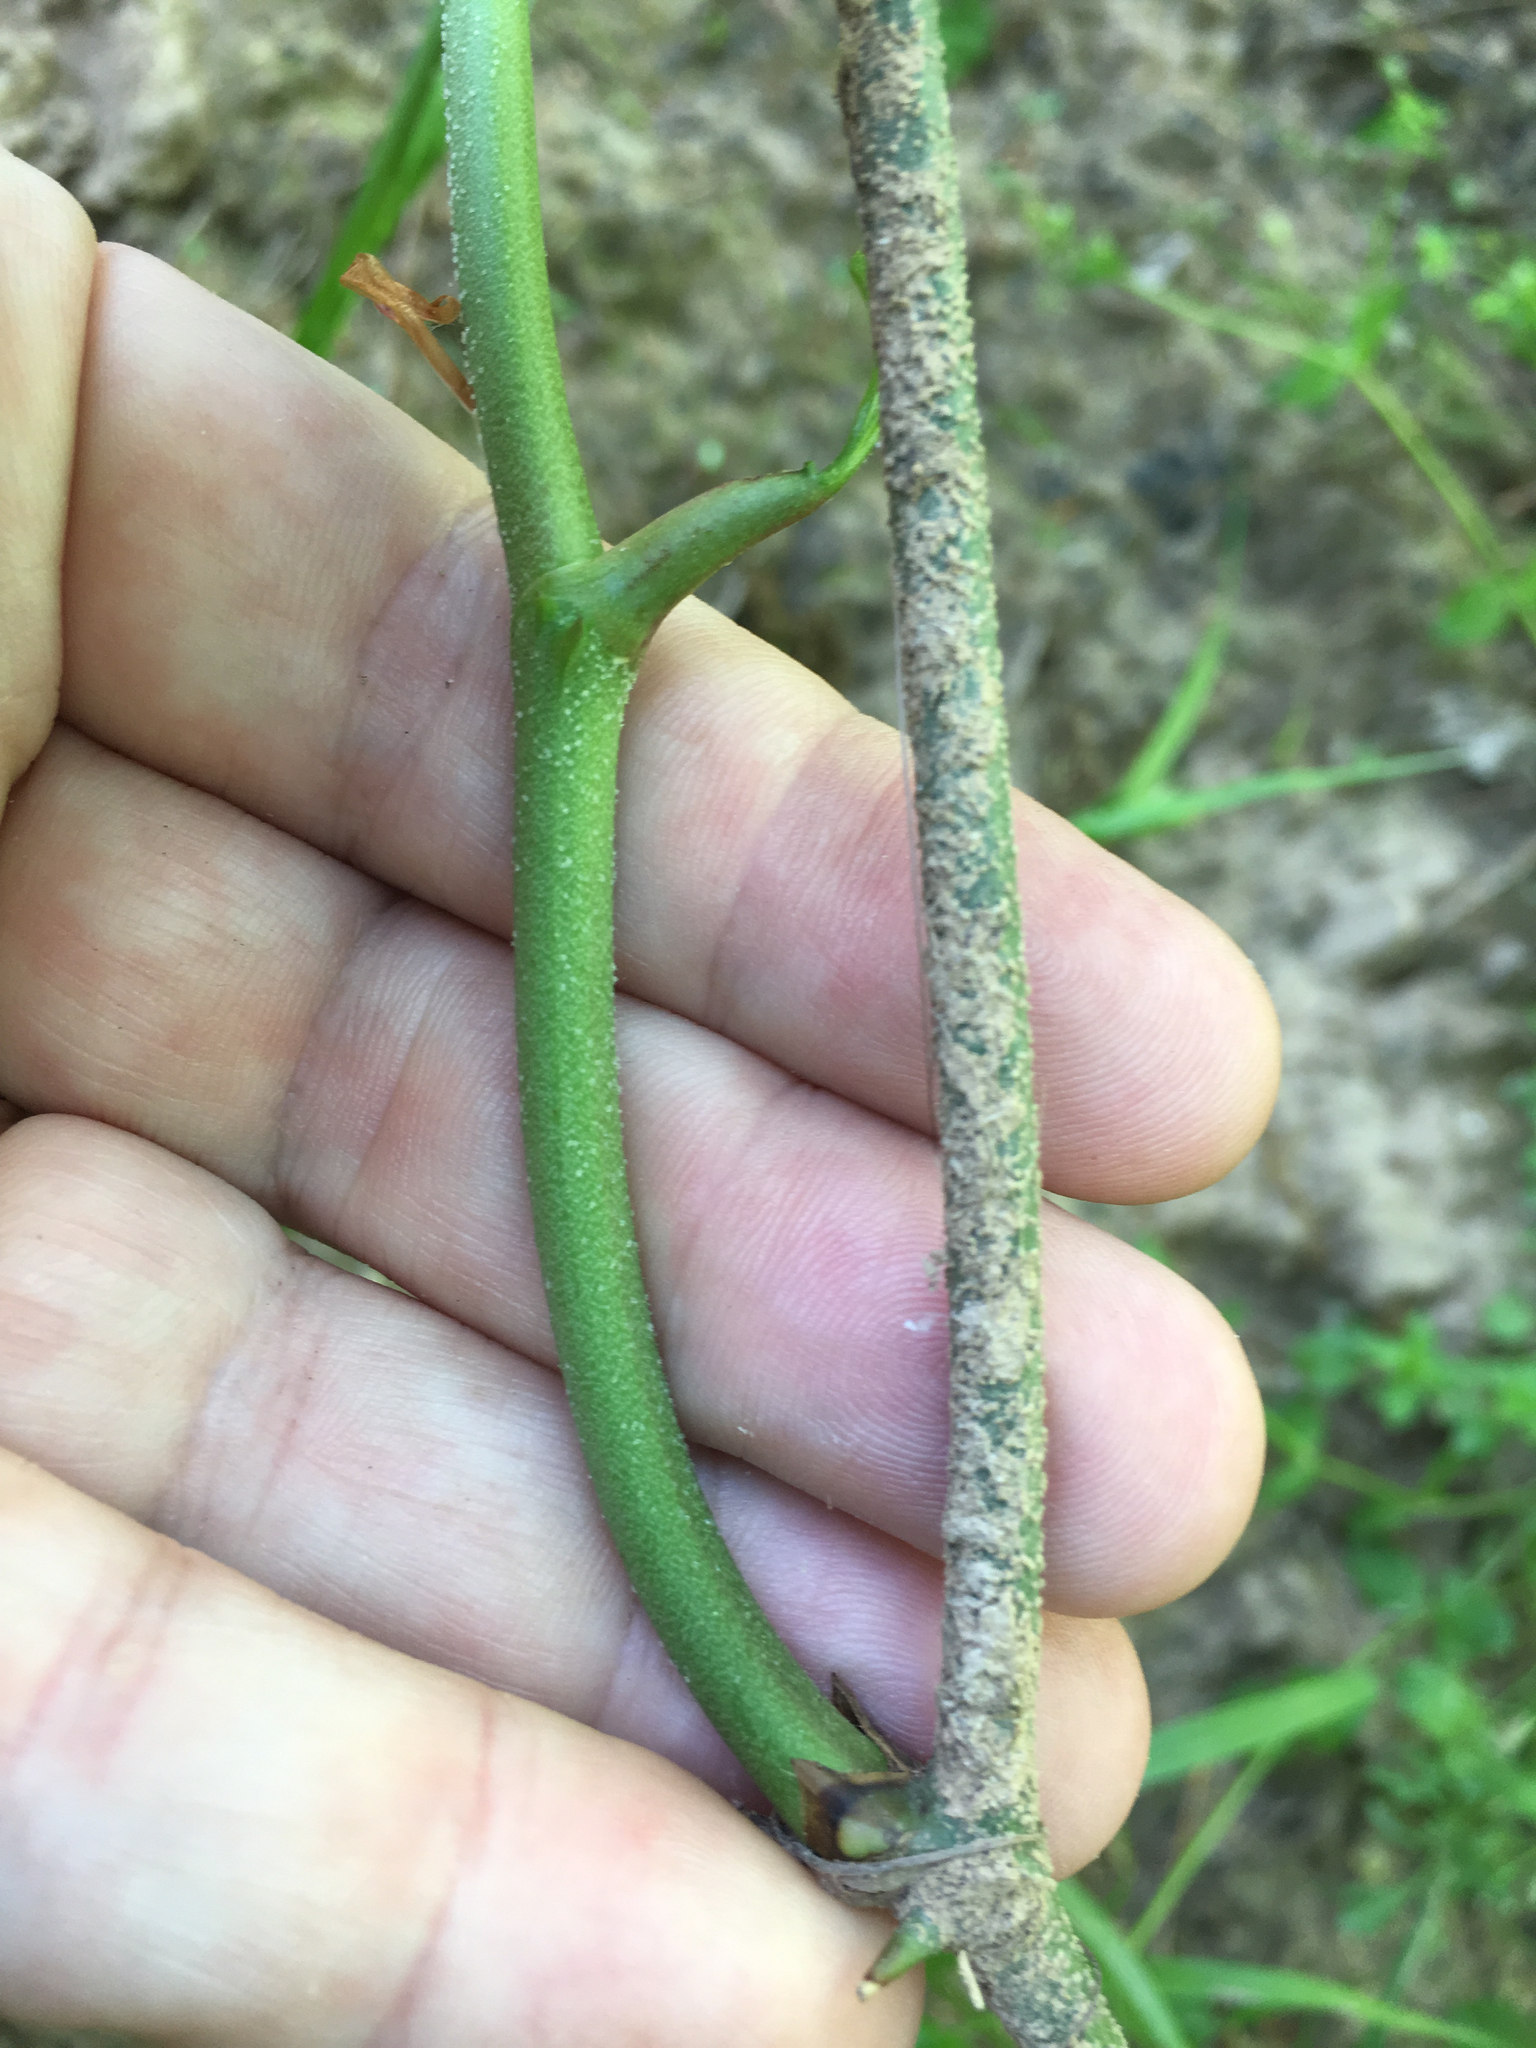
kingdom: Plantae
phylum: Tracheophyta
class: Liliopsida
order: Liliales
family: Smilacaceae
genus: Smilax
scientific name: Smilax bona-nox
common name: Catbrier
